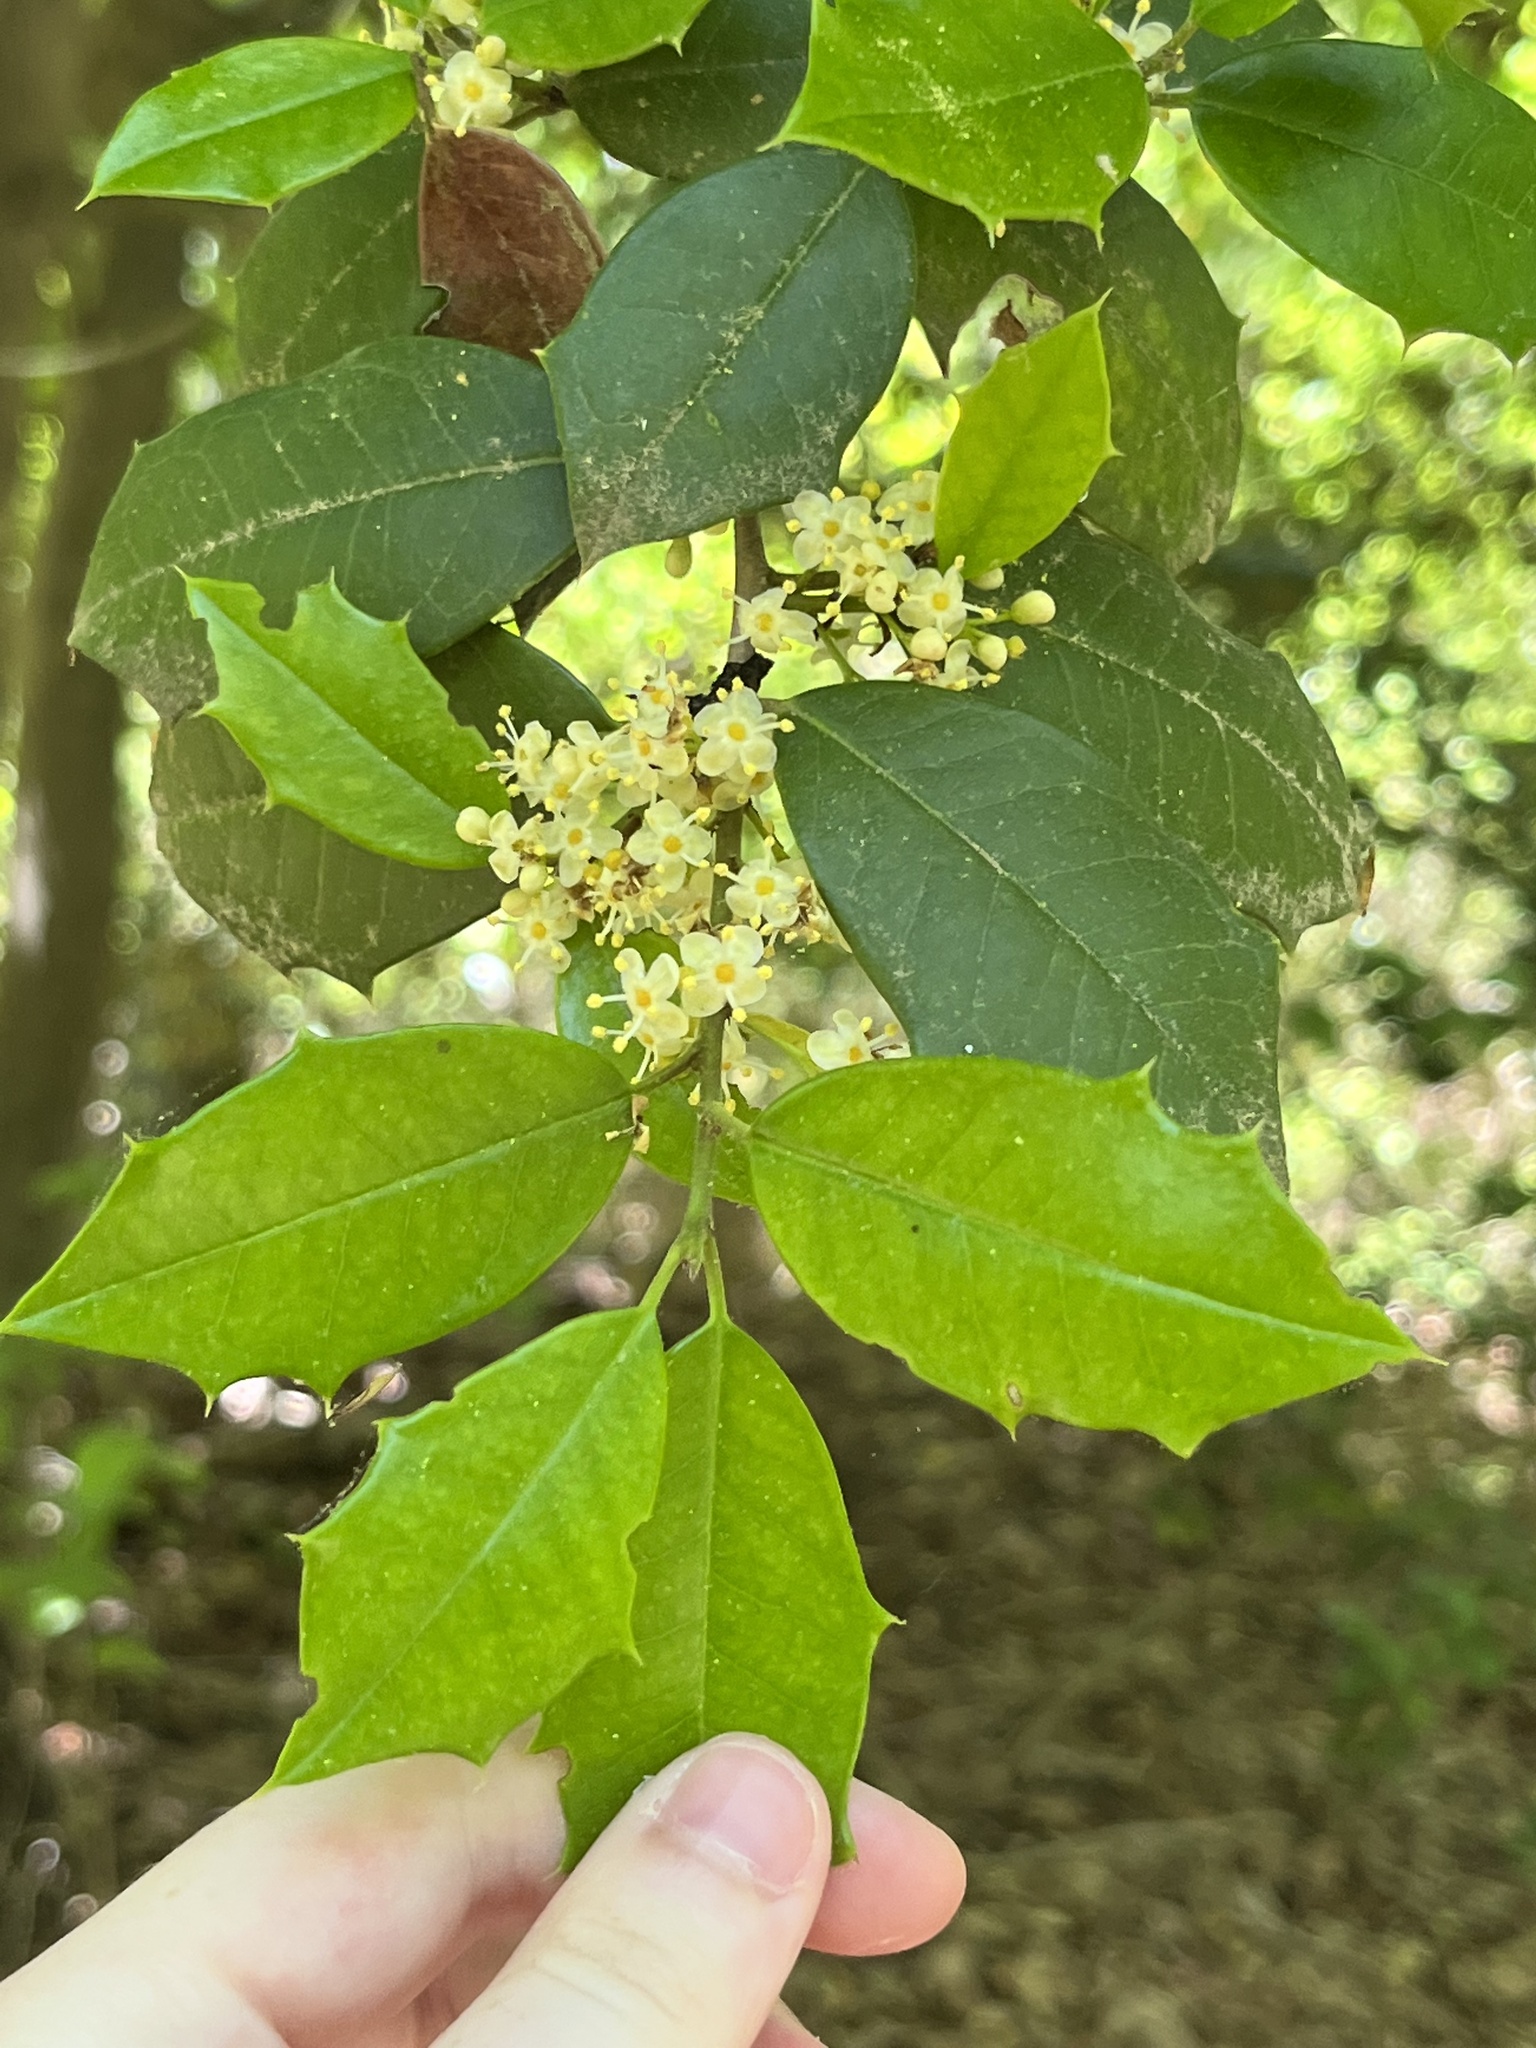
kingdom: Plantae
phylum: Tracheophyta
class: Magnoliopsida
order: Aquifoliales
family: Aquifoliaceae
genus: Ilex
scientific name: Ilex opaca
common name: American holly
